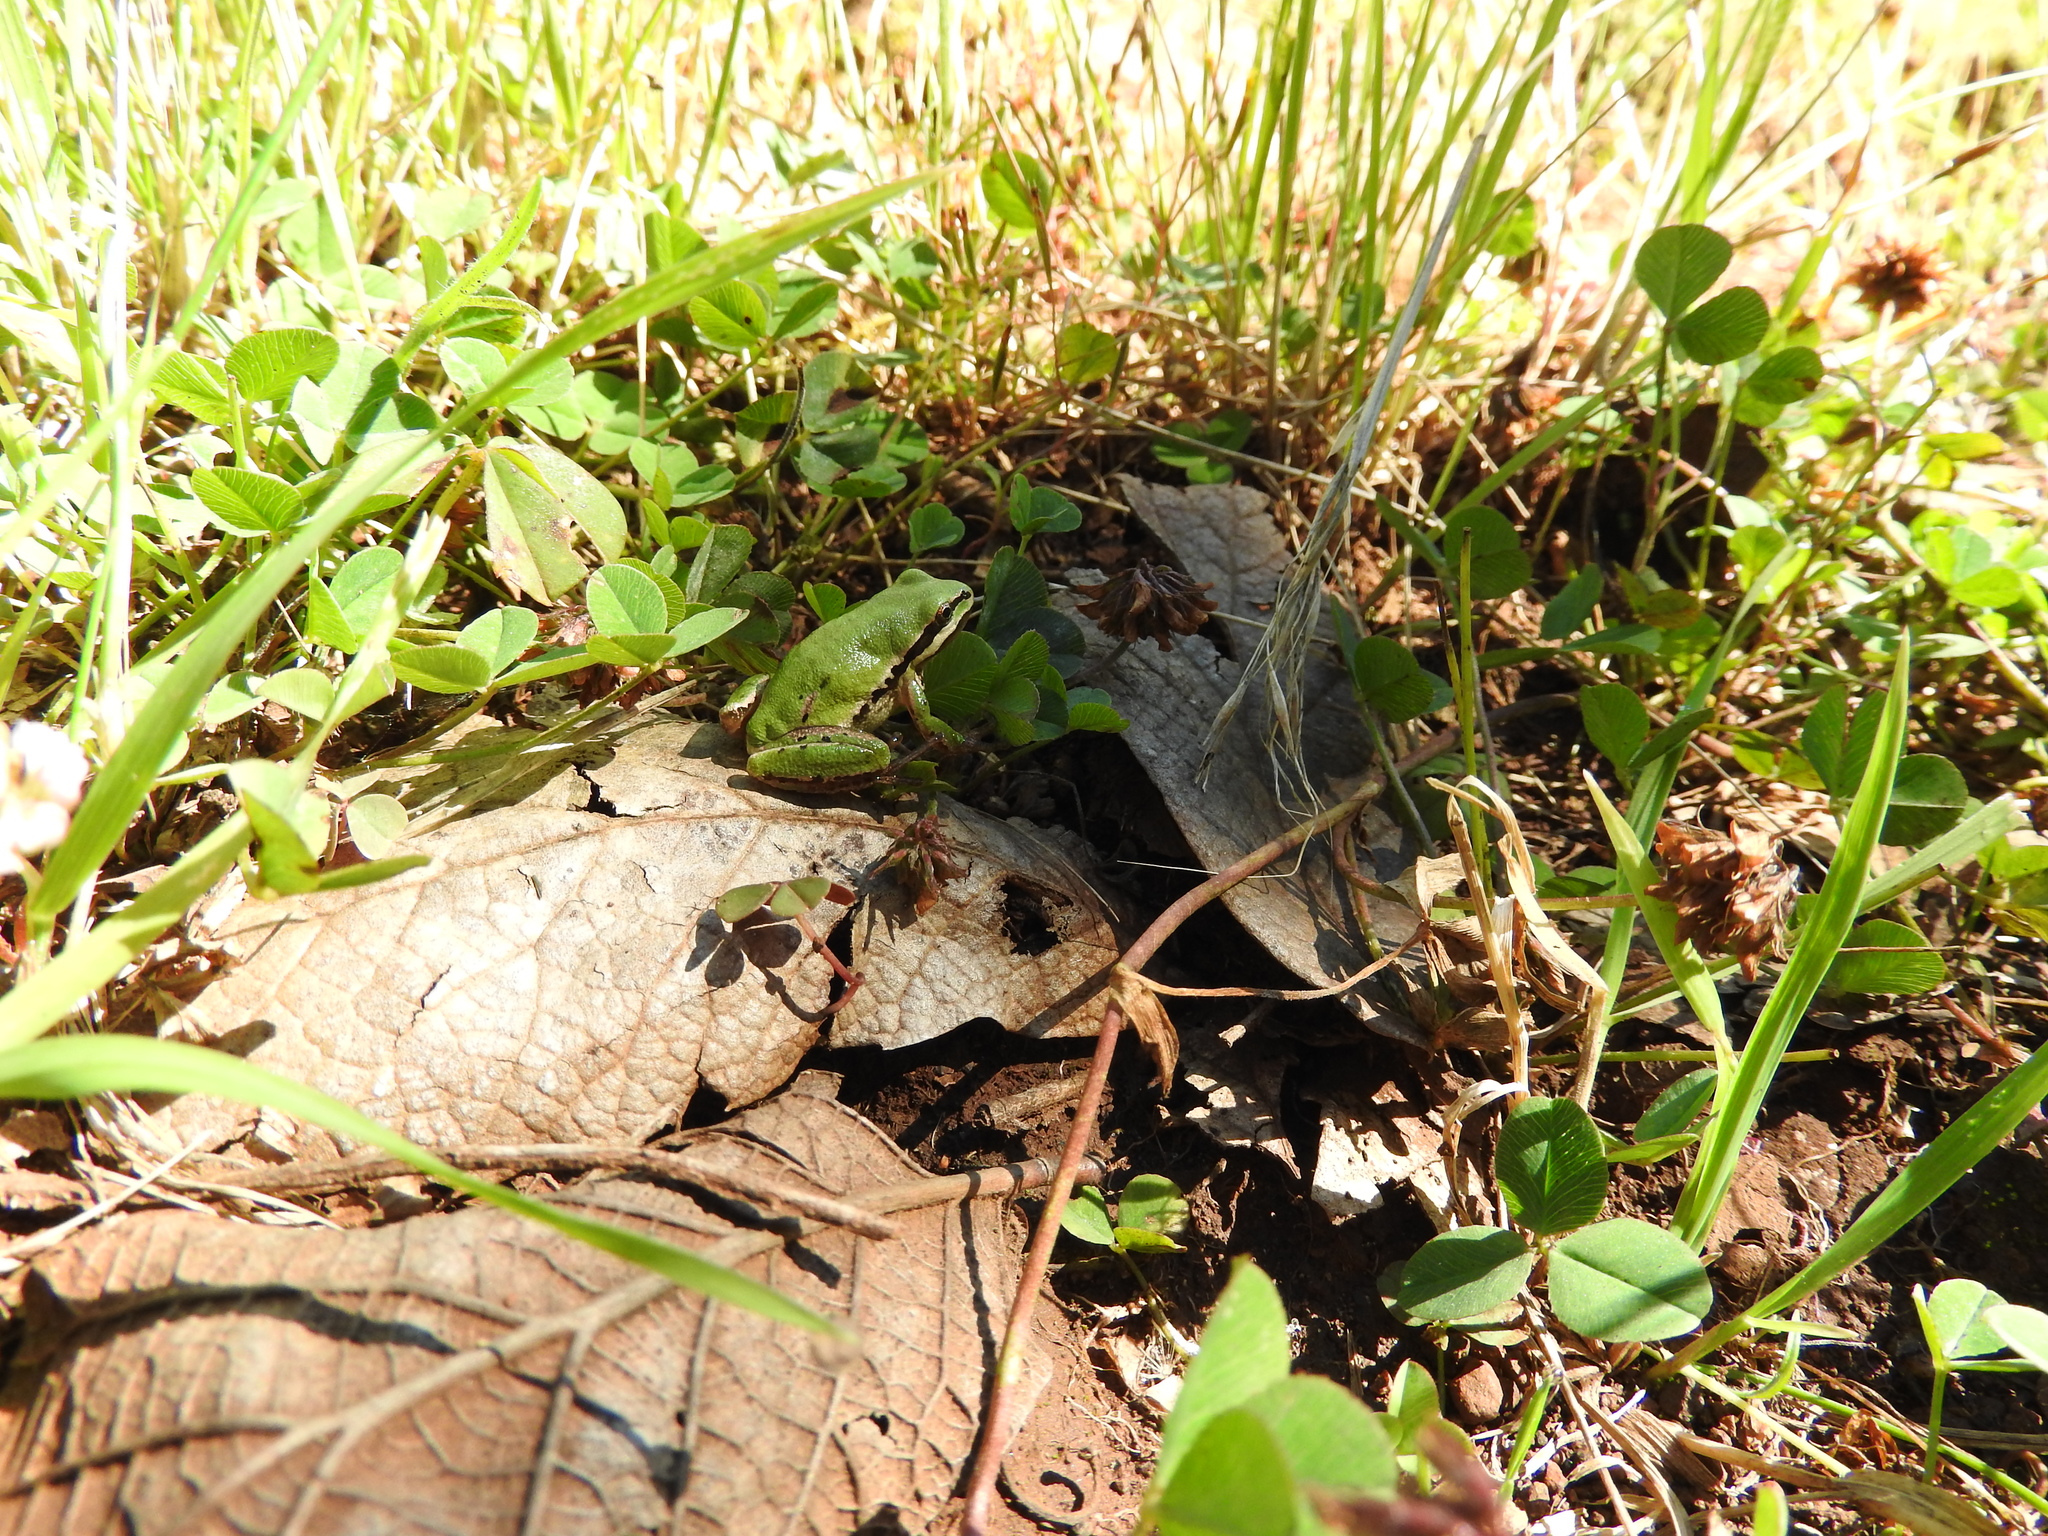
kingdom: Animalia
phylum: Chordata
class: Amphibia
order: Anura
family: Hylidae
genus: Dryophytes
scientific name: Dryophytes eximius
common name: Mountain treefrog
